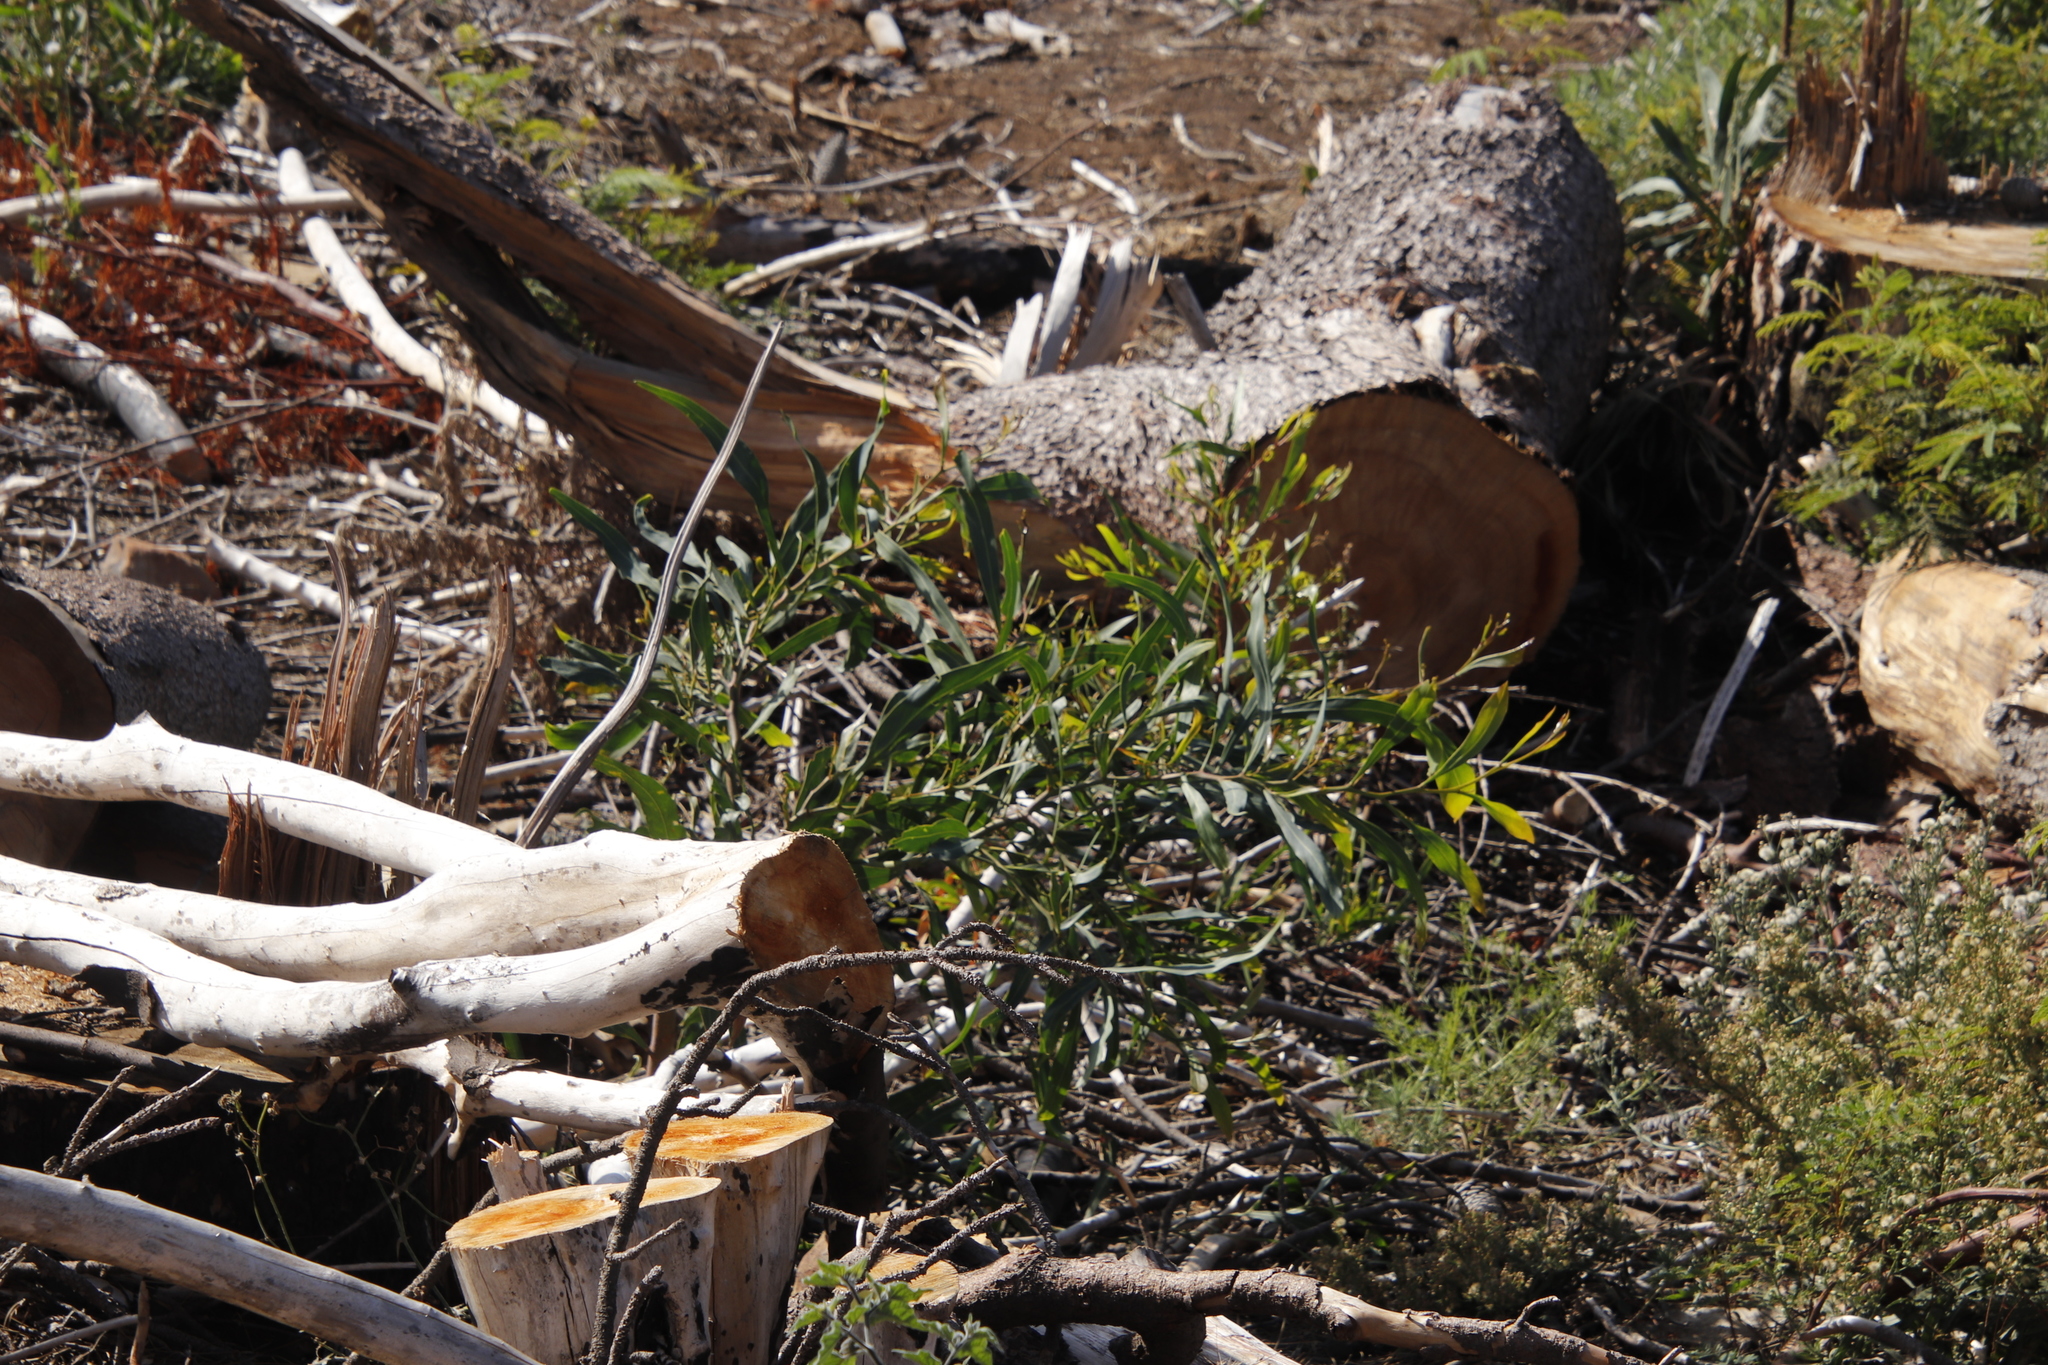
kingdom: Plantae
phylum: Tracheophyta
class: Magnoliopsida
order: Fabales
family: Fabaceae
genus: Acacia
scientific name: Acacia saligna
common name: Orange wattle
